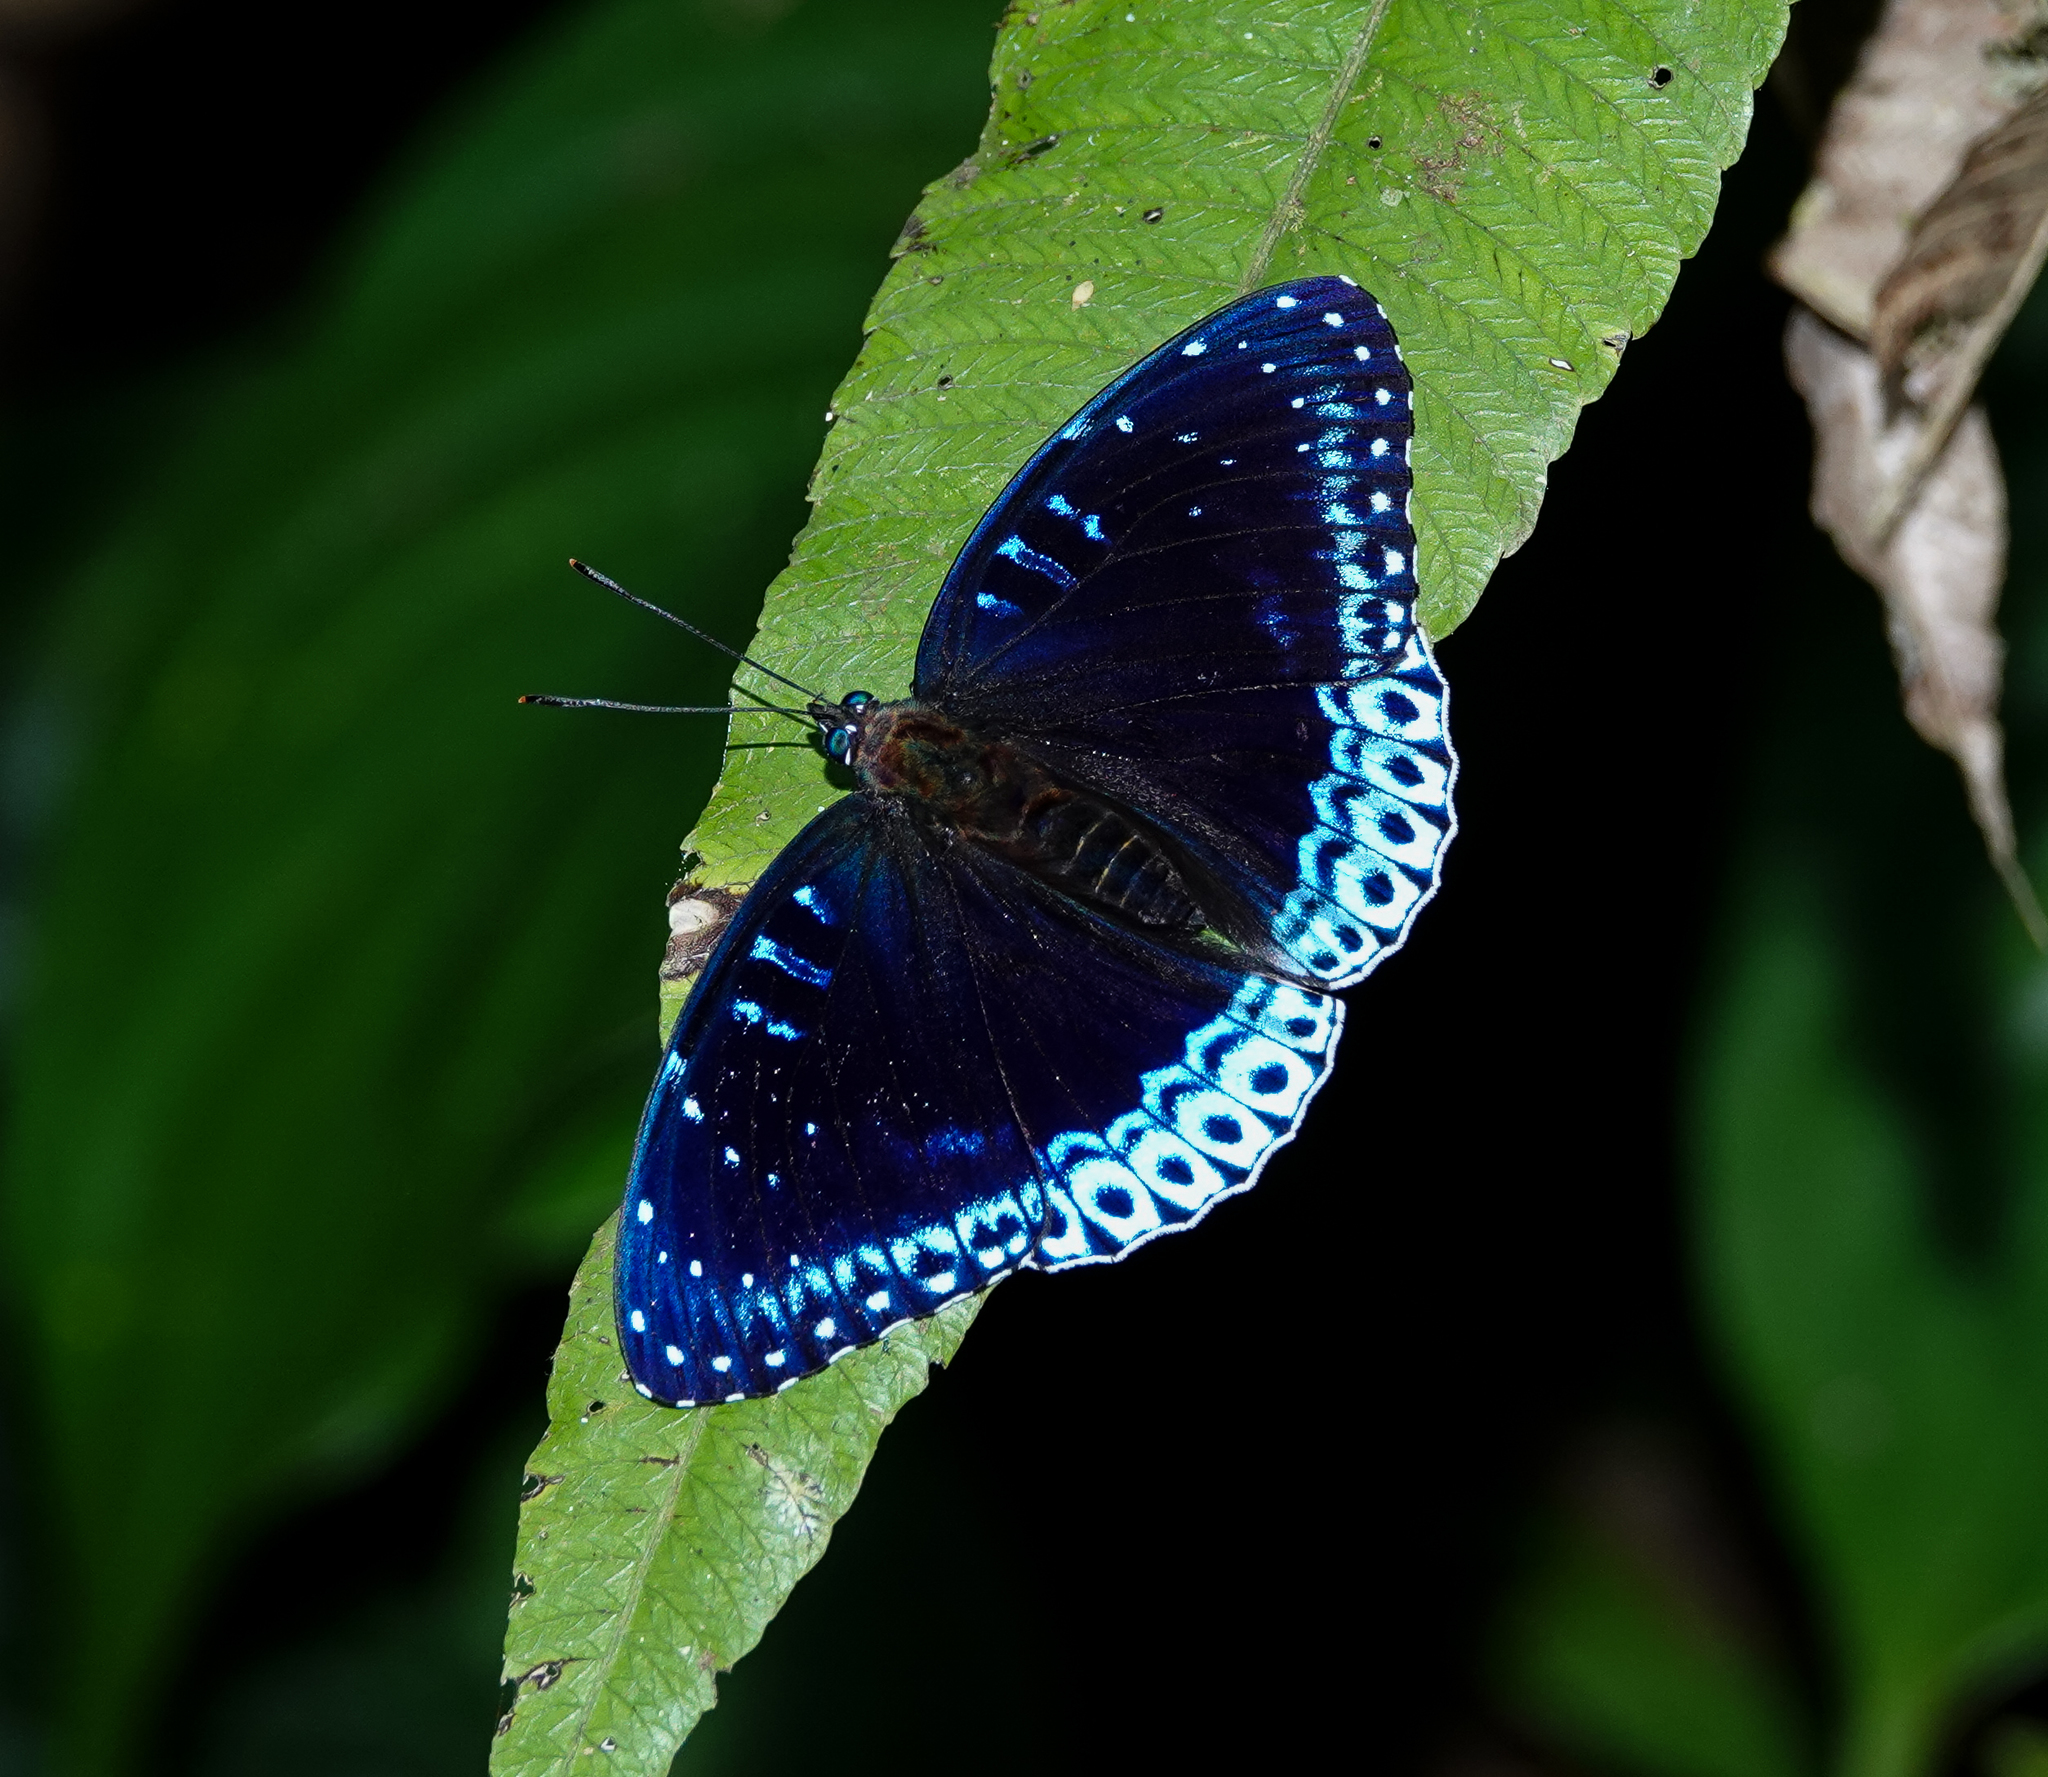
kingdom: Animalia
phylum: Arthropoda
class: Insecta
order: Lepidoptera
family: Nymphalidae
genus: Stibochiona
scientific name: Stibochiona nicea
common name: Popinjay
